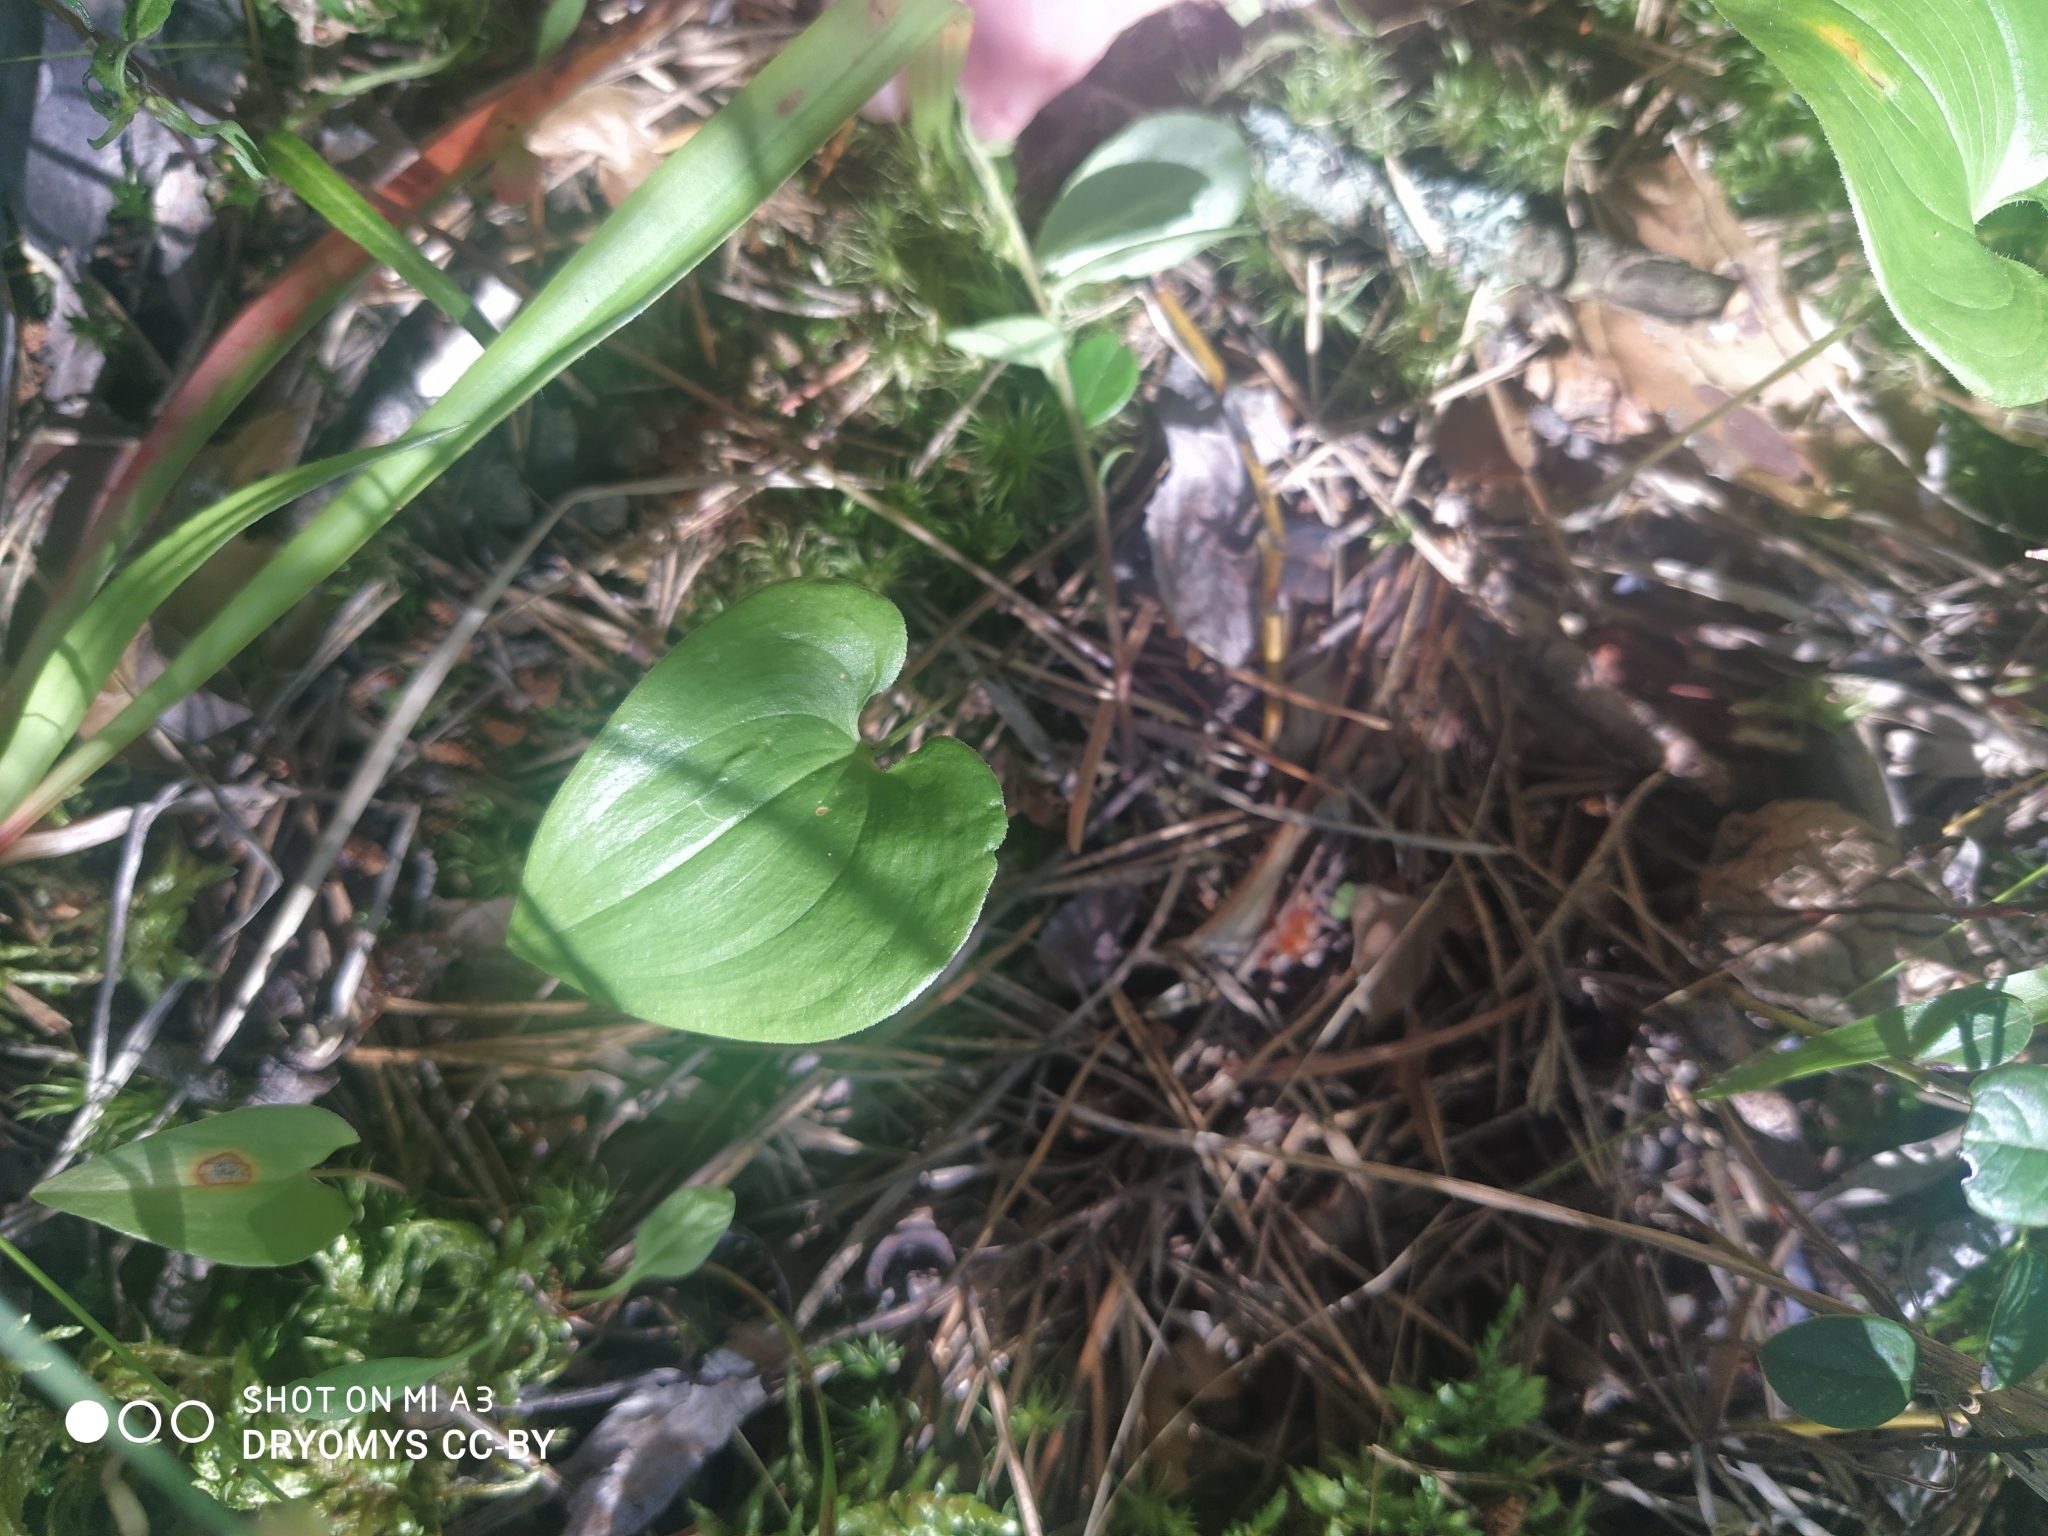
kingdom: Plantae
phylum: Tracheophyta
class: Liliopsida
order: Asparagales
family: Asparagaceae
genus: Maianthemum
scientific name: Maianthemum bifolium
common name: May lily
